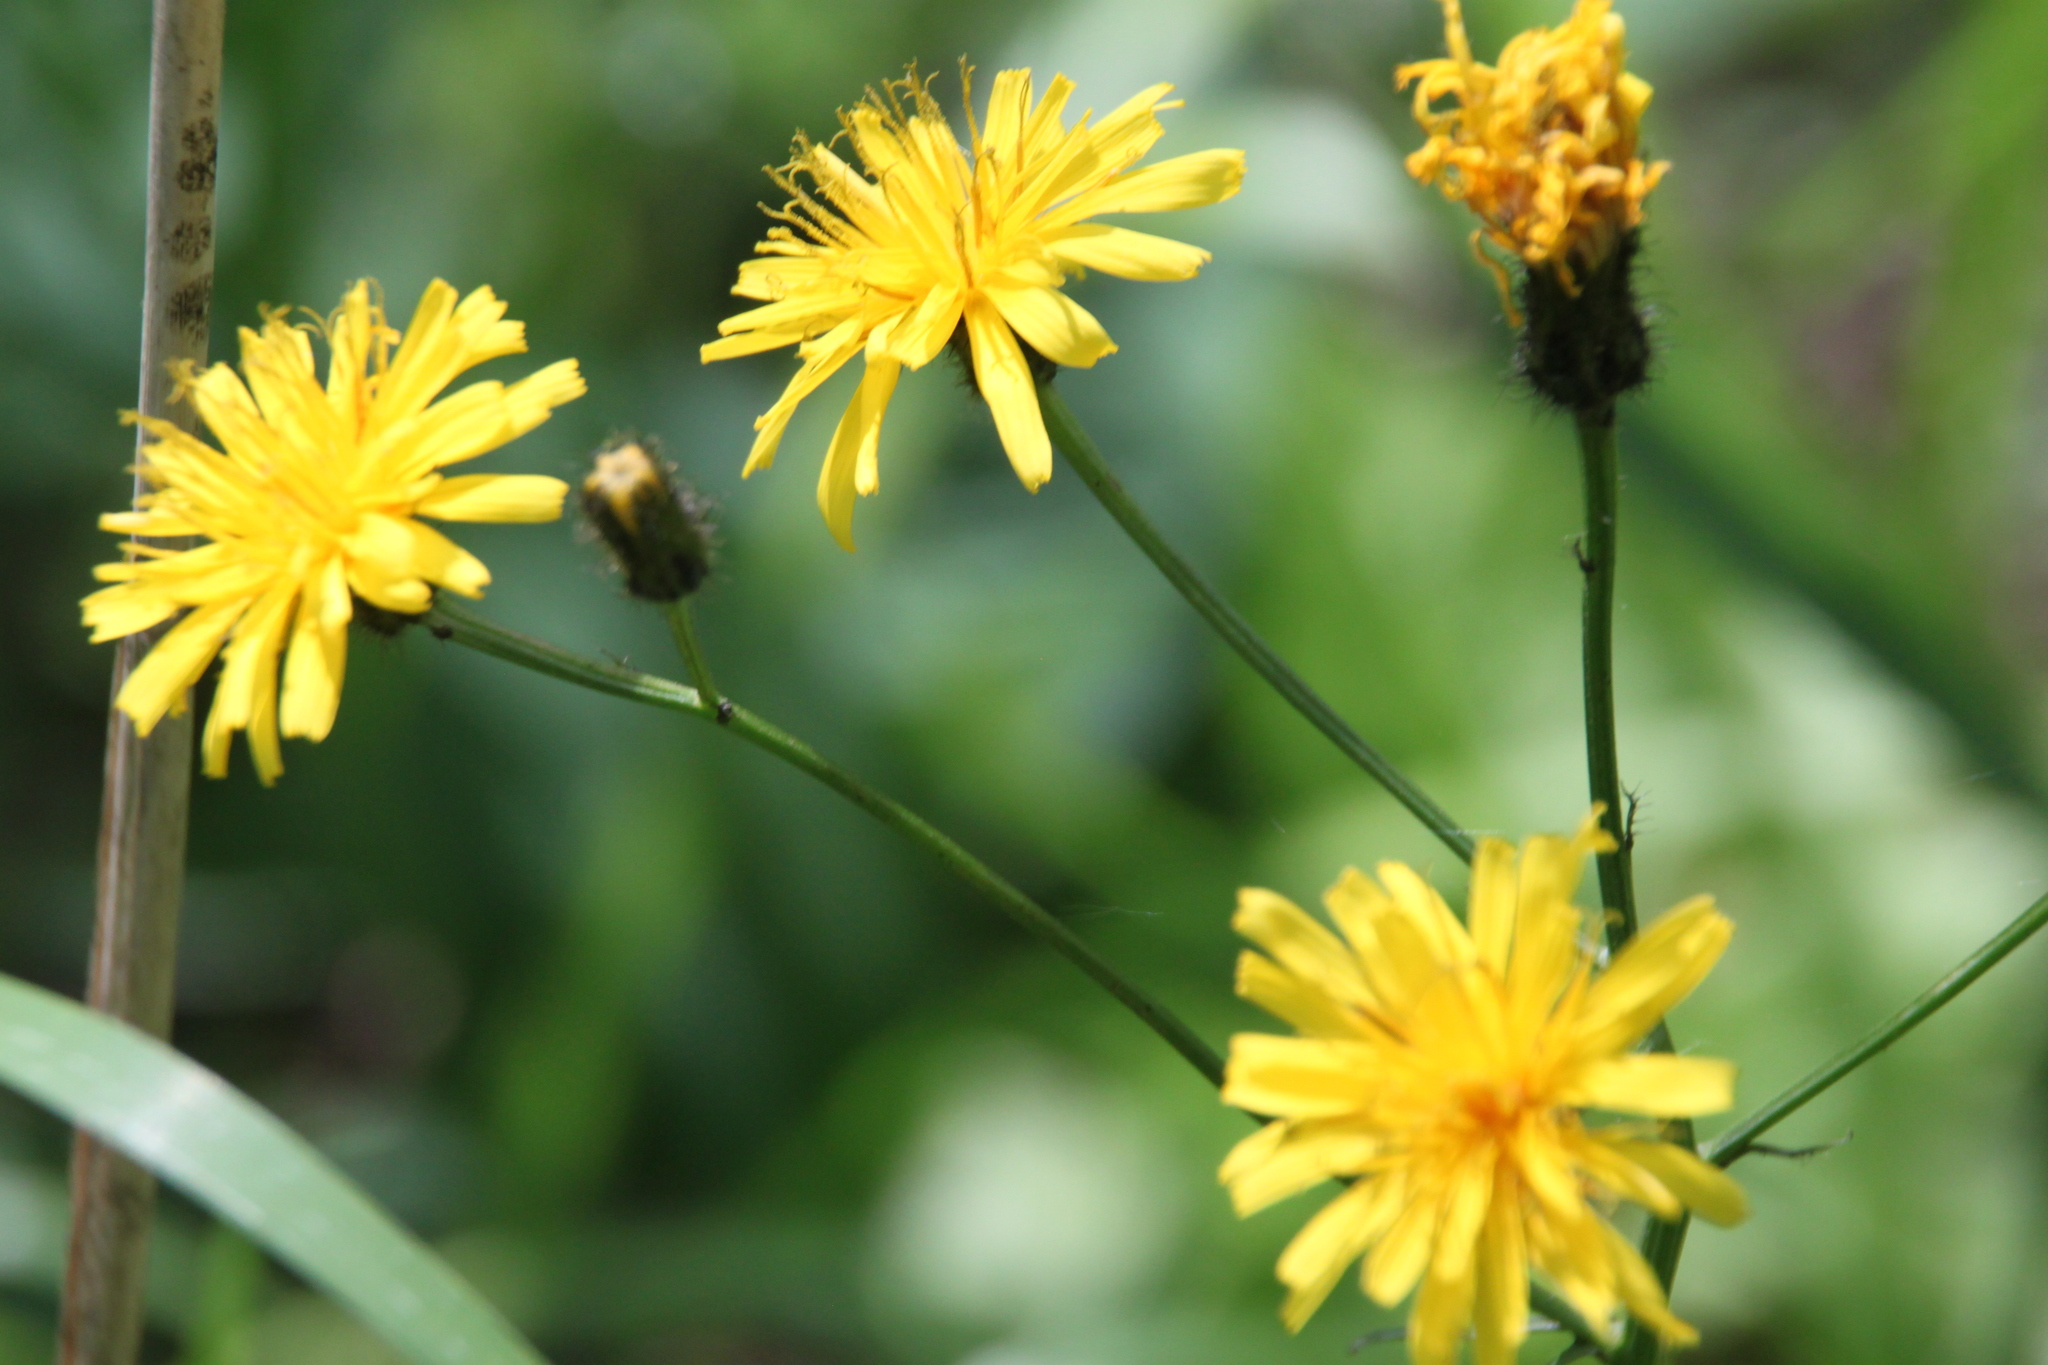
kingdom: Plantae
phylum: Tracheophyta
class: Magnoliopsida
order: Asterales
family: Asteraceae
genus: Crepis
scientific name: Crepis paludosa
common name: Marsh hawk's-beard
